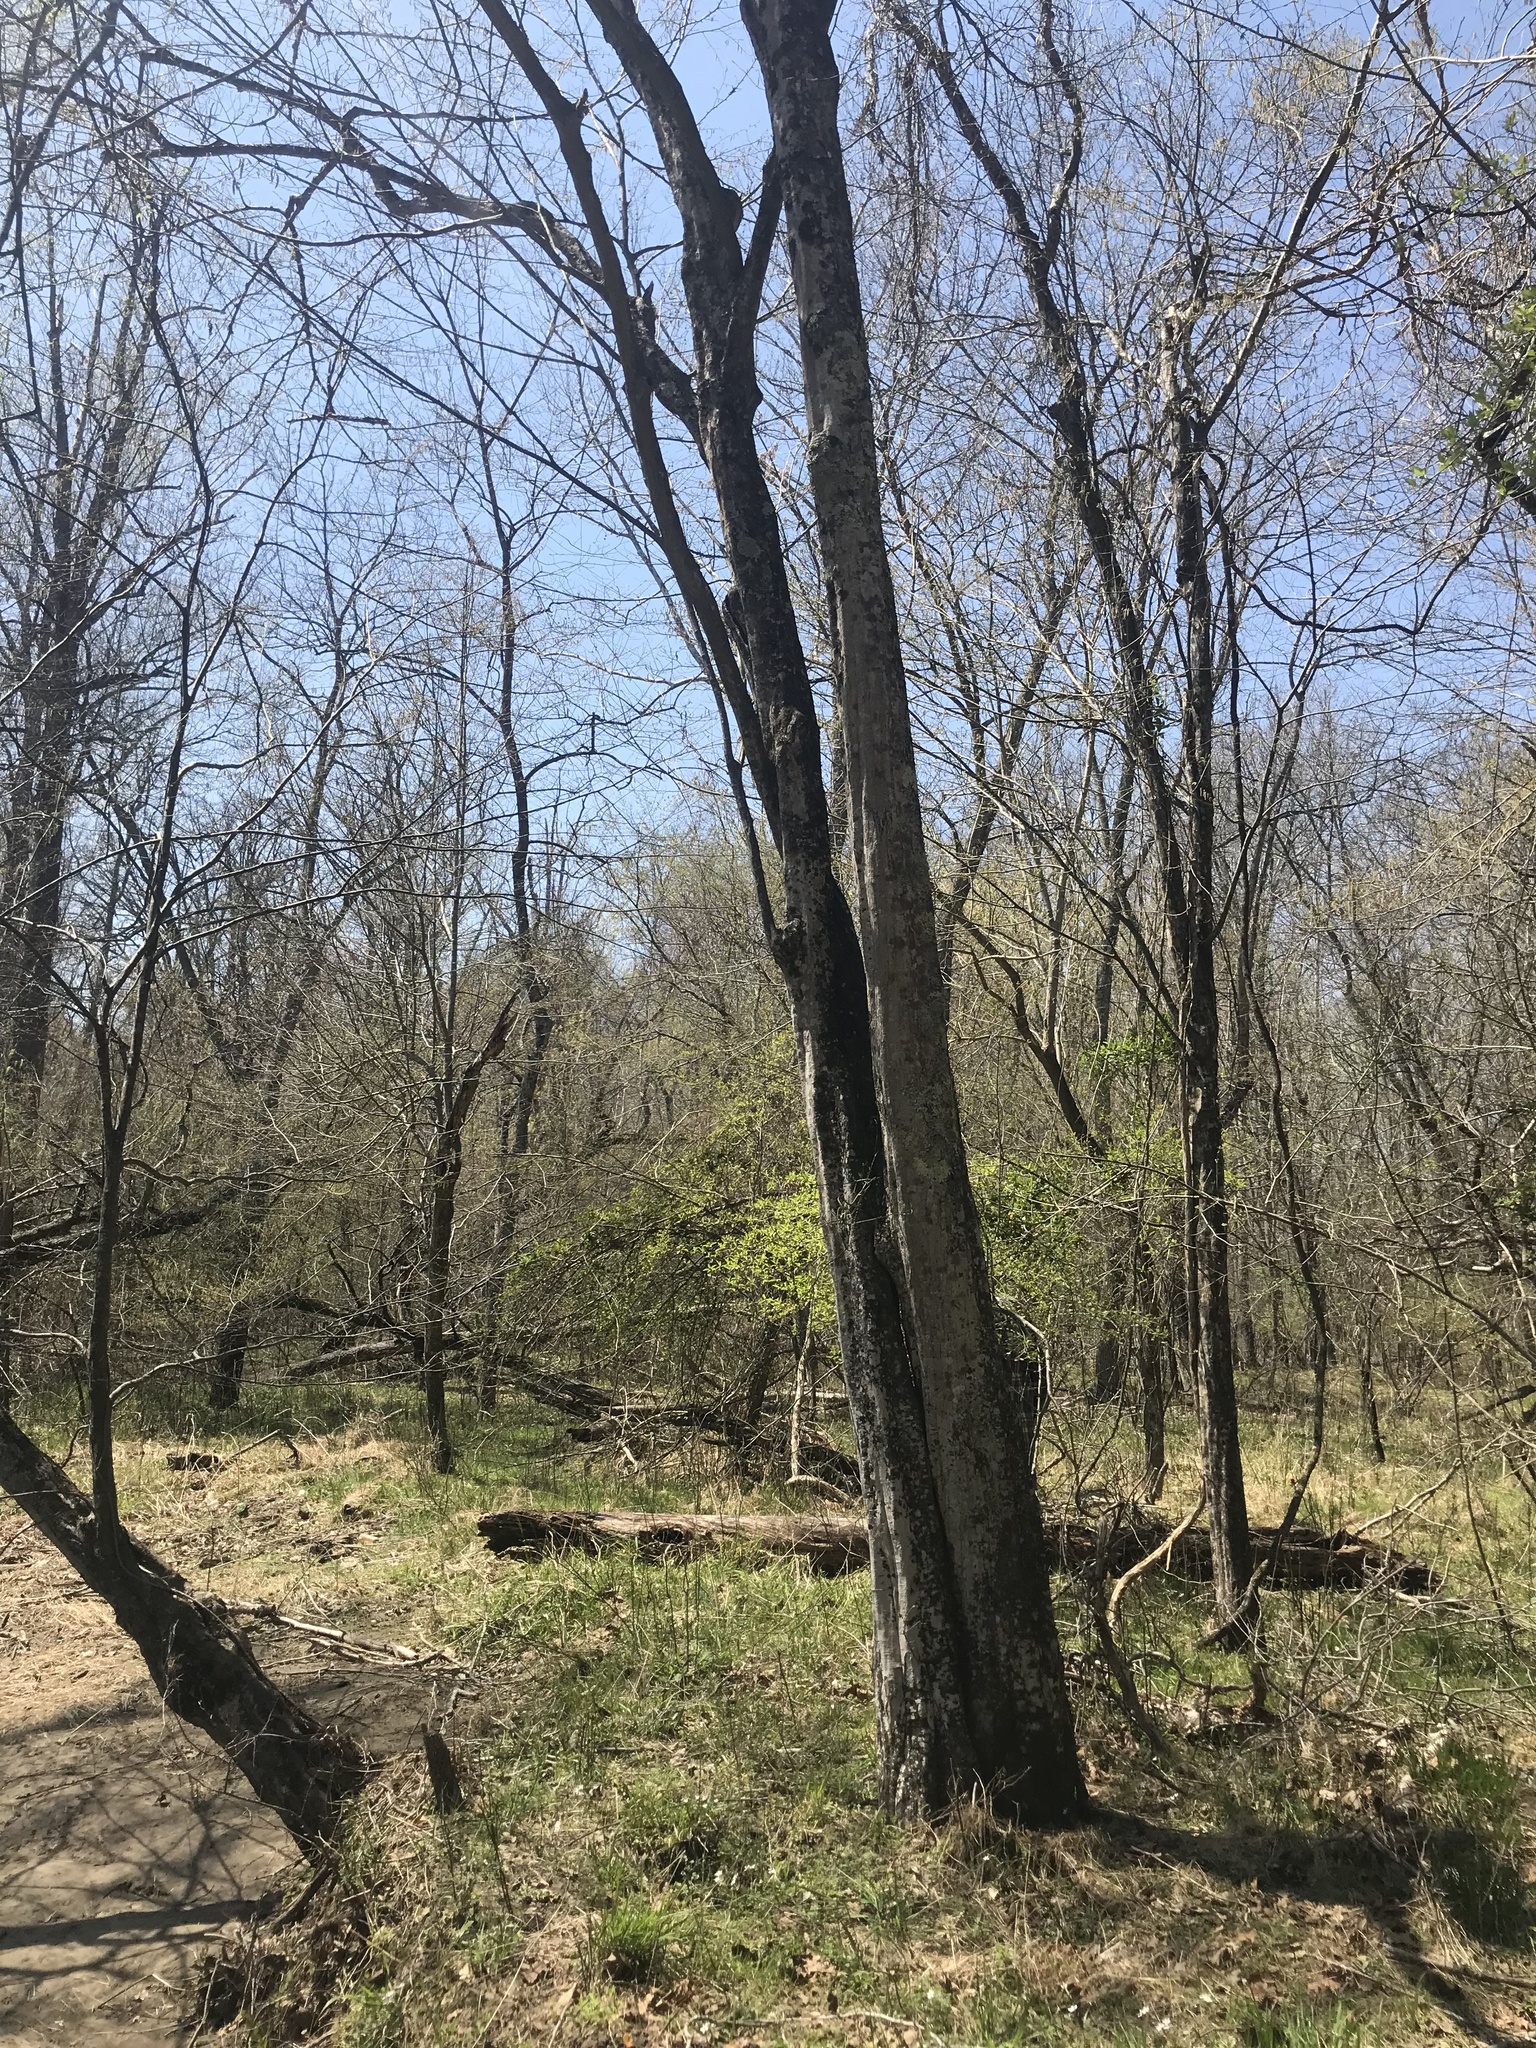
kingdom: Plantae
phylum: Tracheophyta
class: Magnoliopsida
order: Fagales
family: Betulaceae
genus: Carpinus
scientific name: Carpinus caroliniana
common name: American hornbeam
